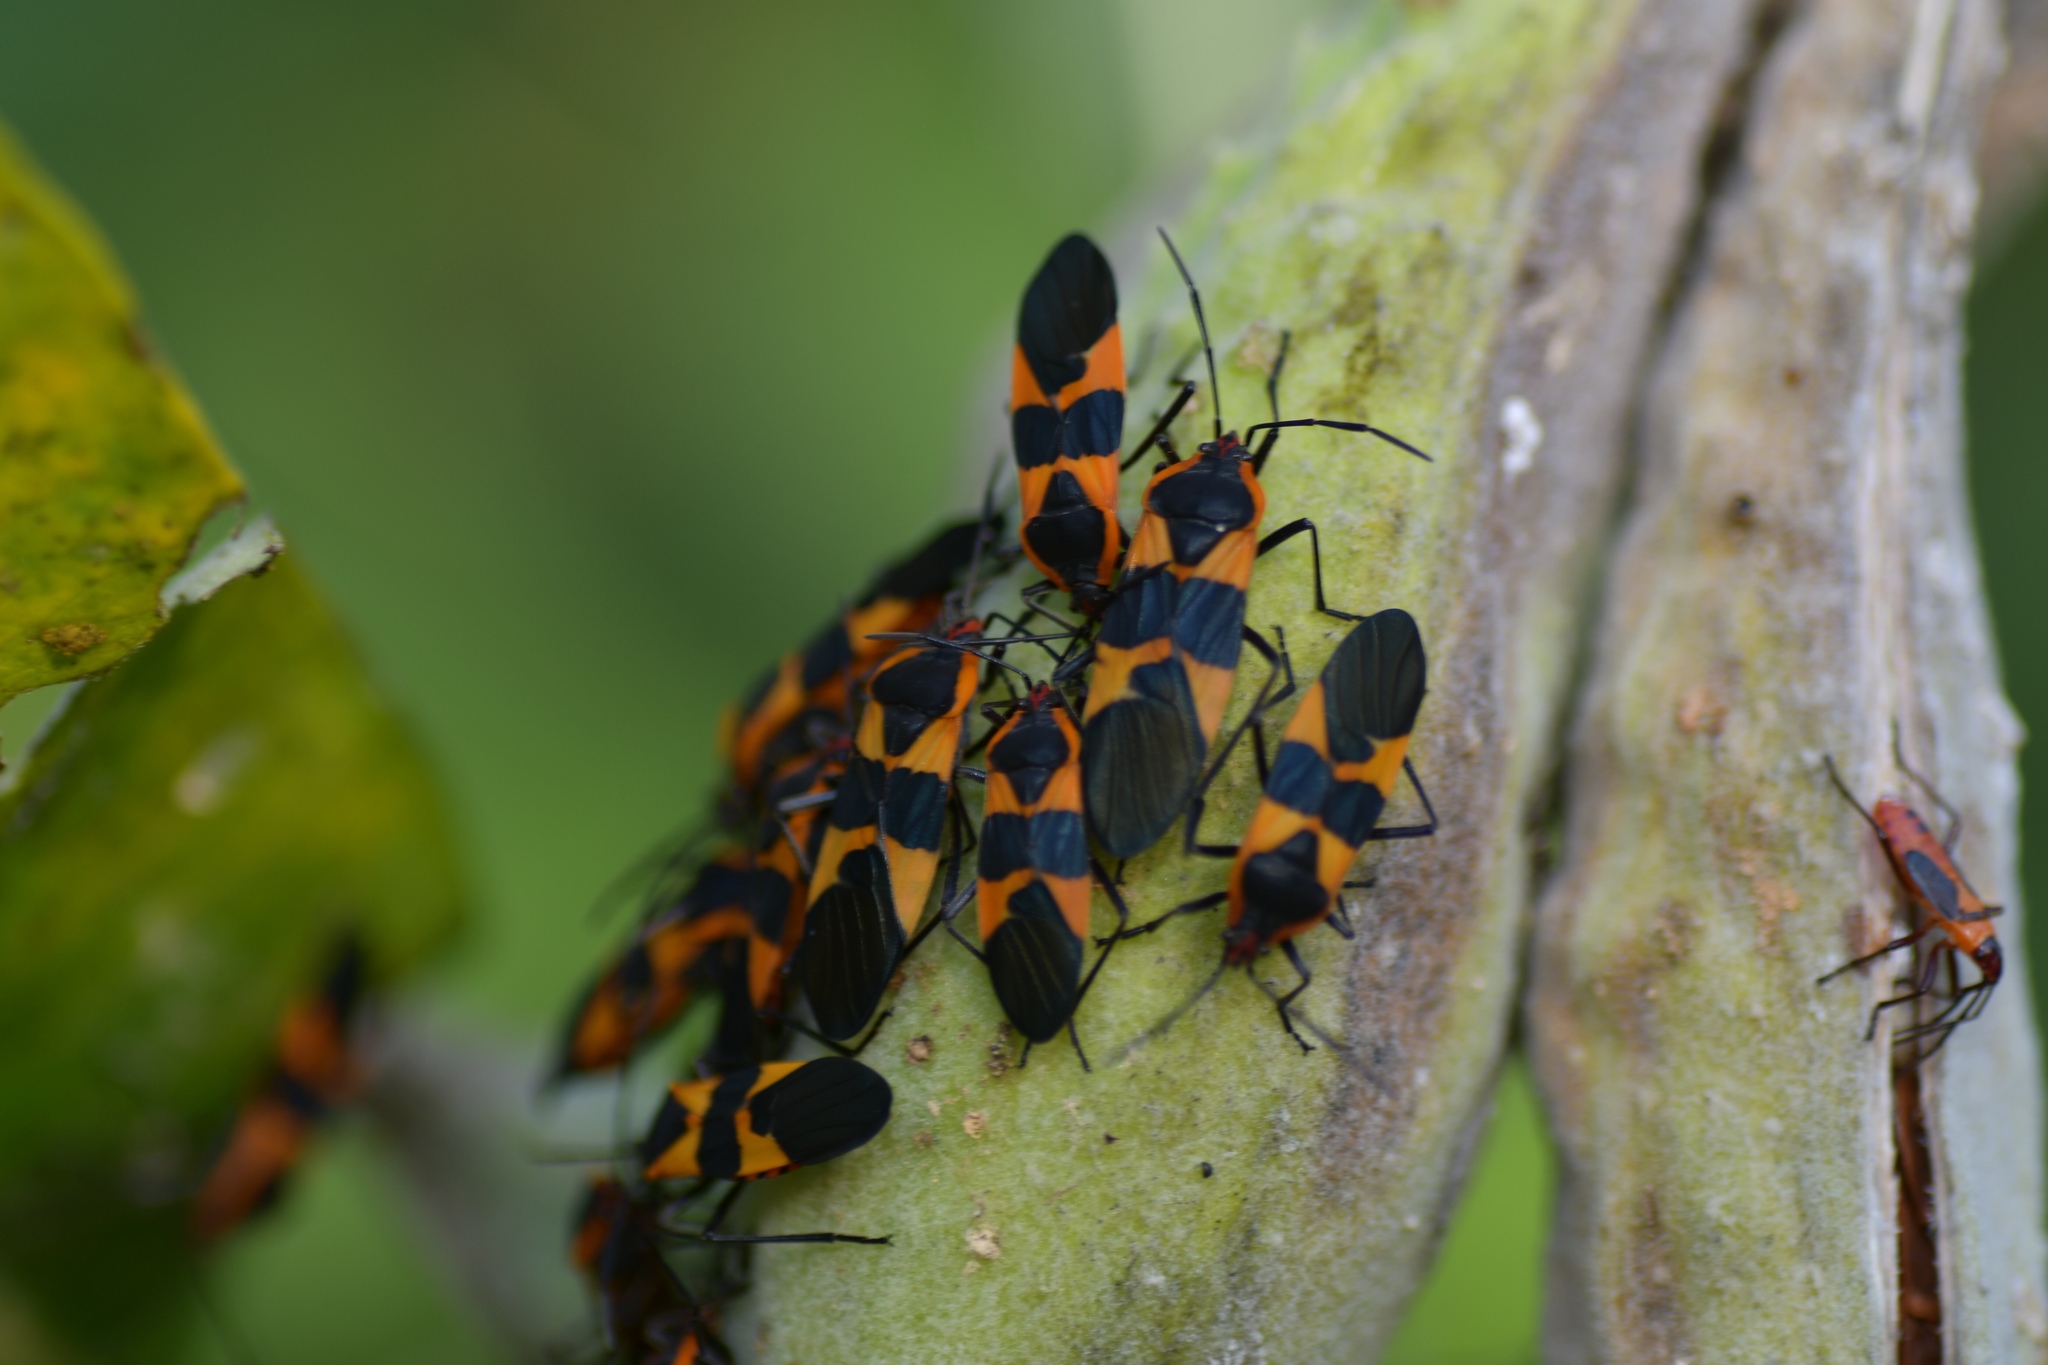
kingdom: Animalia
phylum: Arthropoda
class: Insecta
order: Hemiptera
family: Lygaeidae
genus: Oncopeltus
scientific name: Oncopeltus fasciatus
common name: Large milkweed bug
